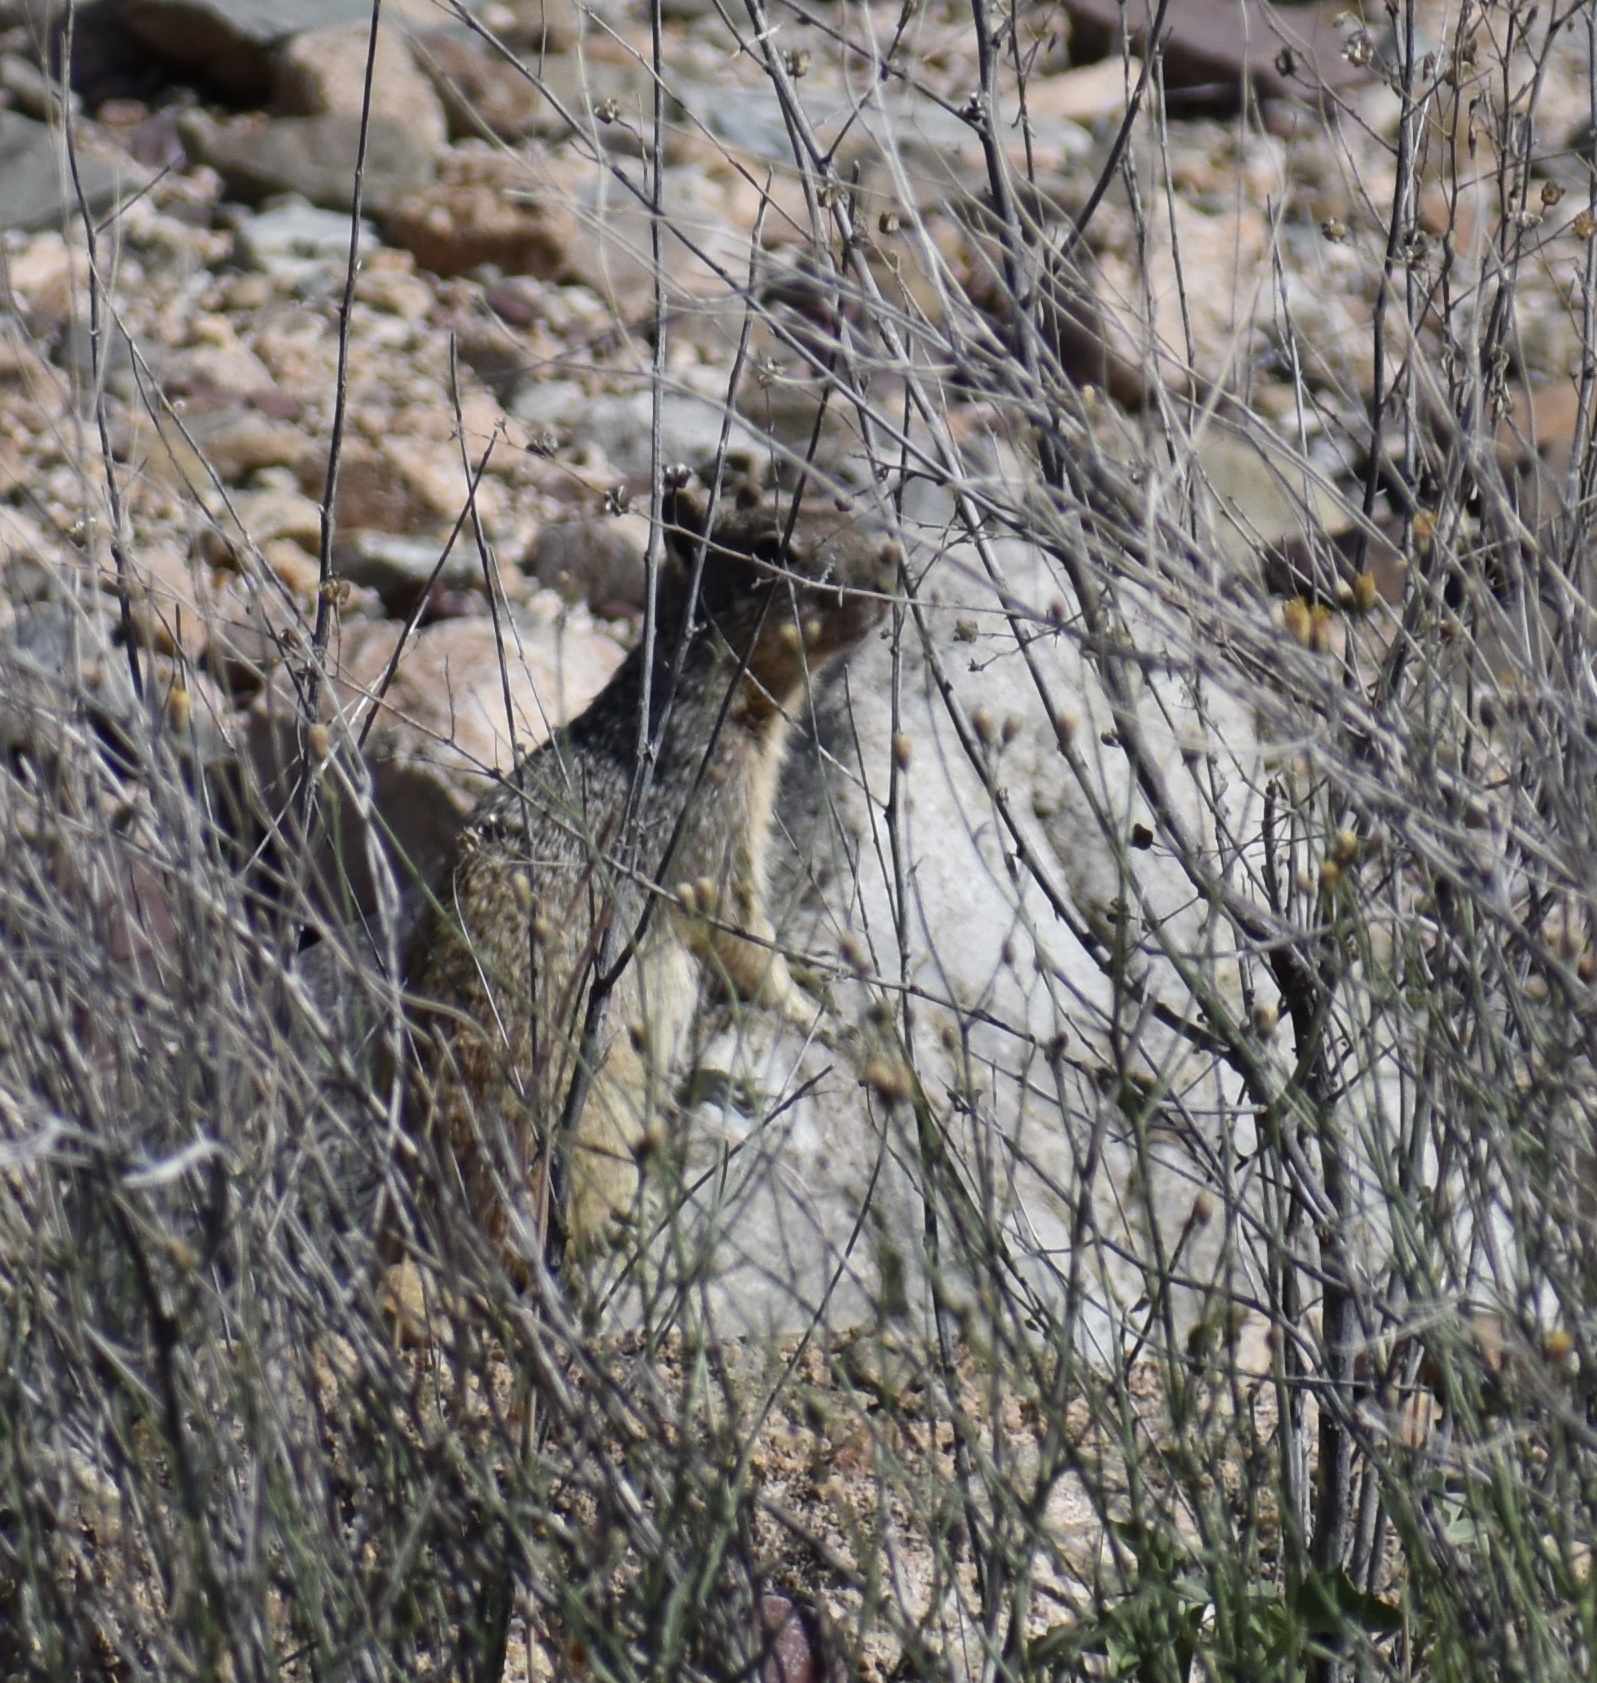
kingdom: Animalia
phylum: Chordata
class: Mammalia
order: Rodentia
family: Sciuridae
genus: Otospermophilus
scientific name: Otospermophilus variegatus
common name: Rock squirrel
